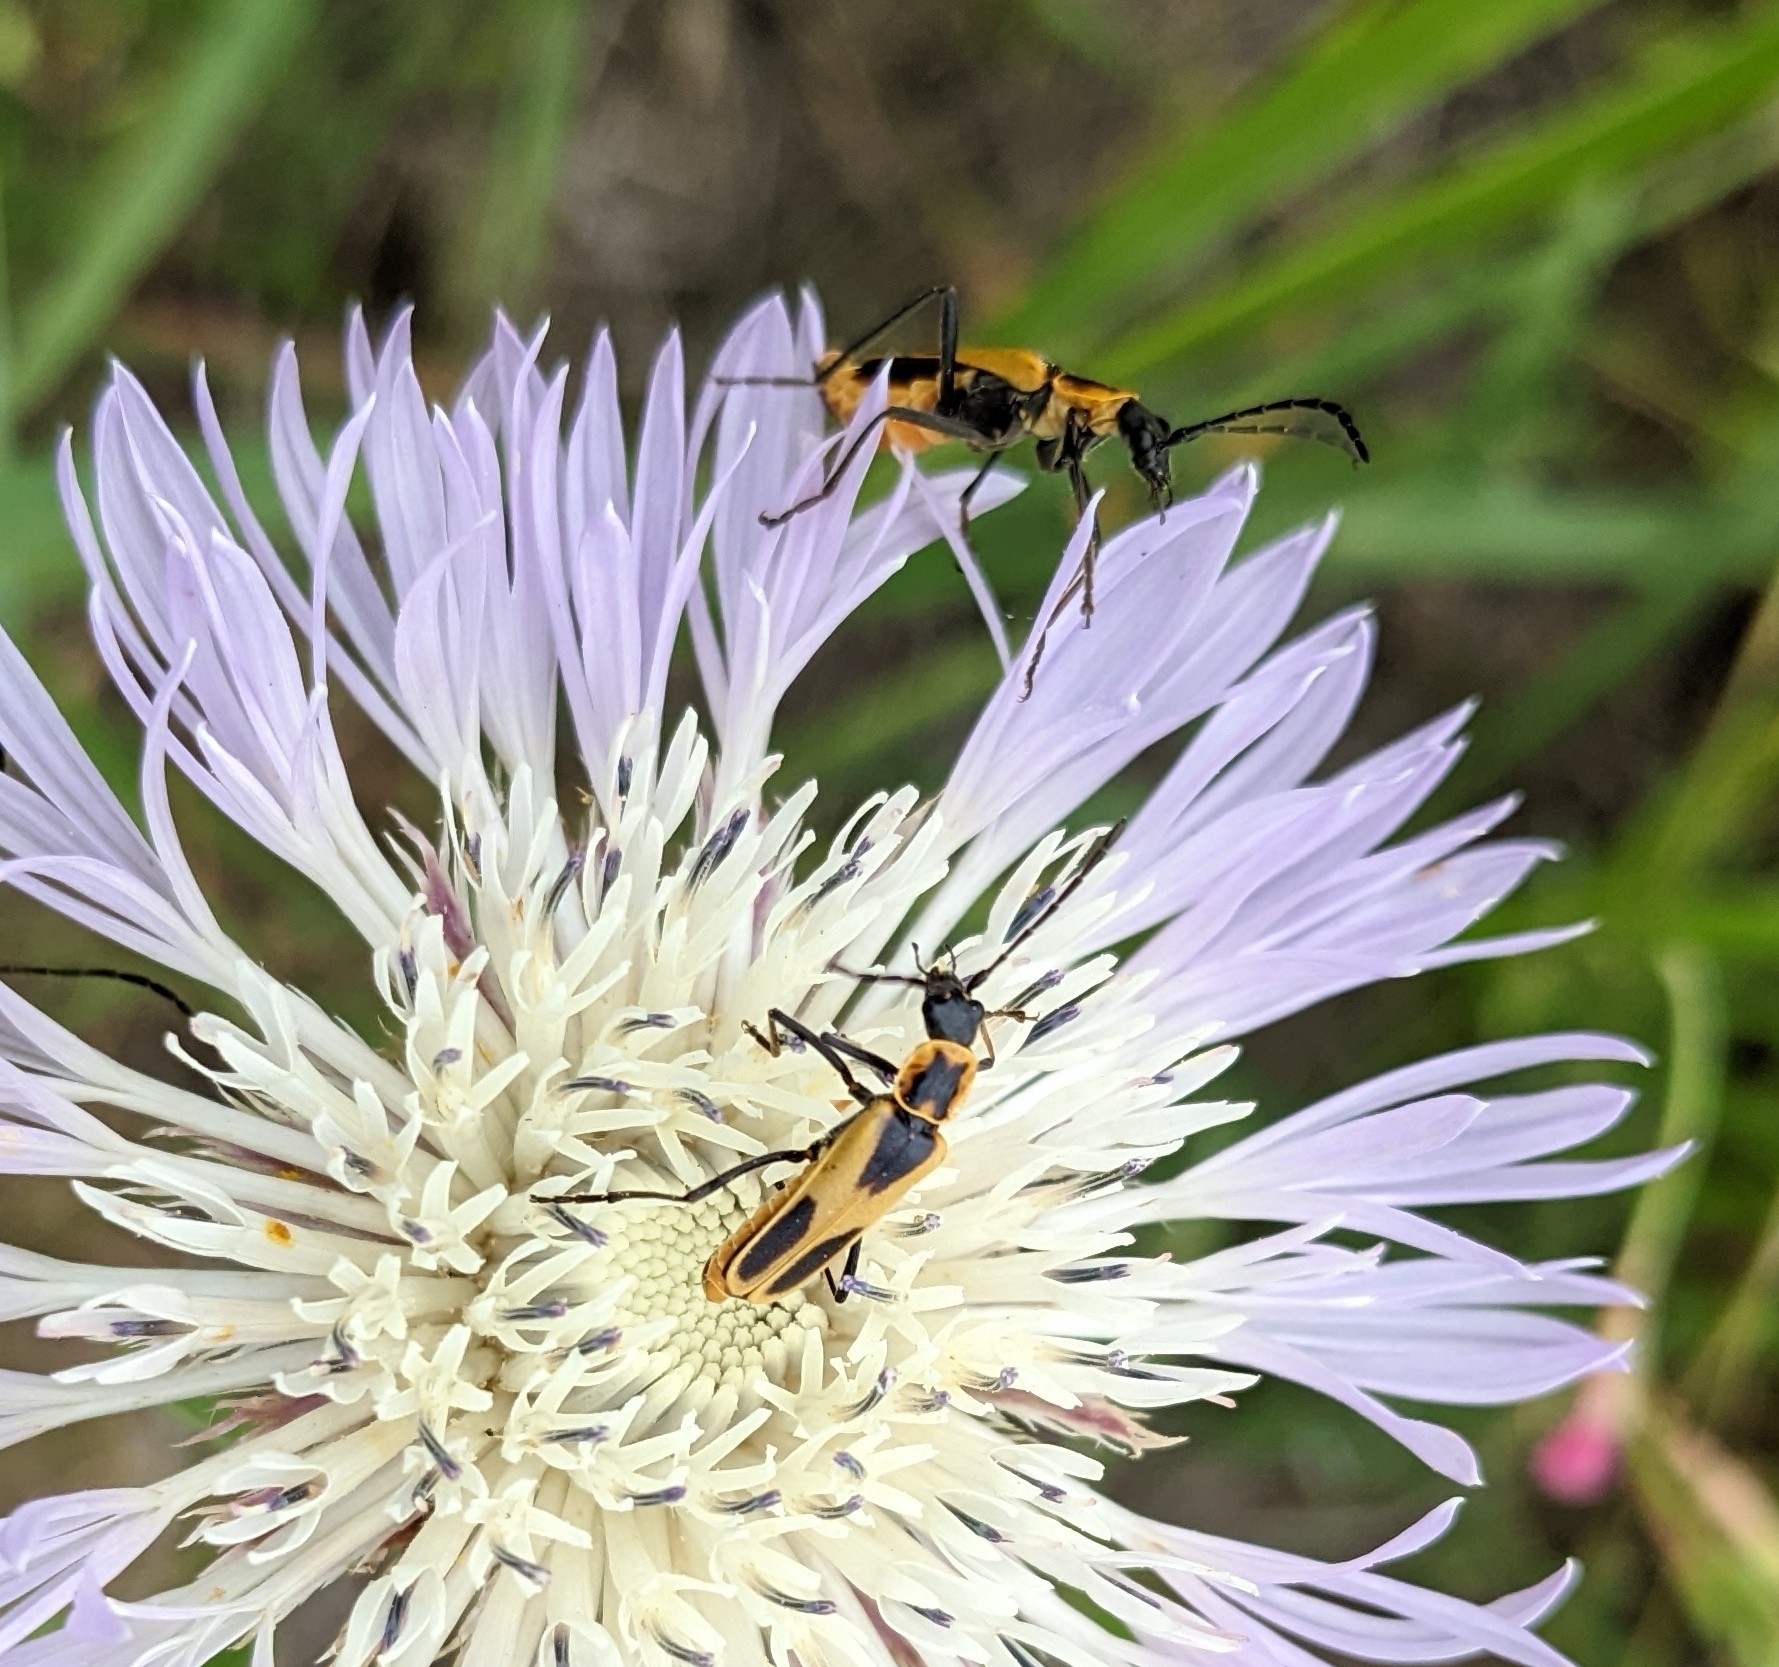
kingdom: Animalia
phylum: Arthropoda
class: Insecta
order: Coleoptera
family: Cantharidae
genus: Chauliognathus
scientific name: Chauliognathus scutellaris
